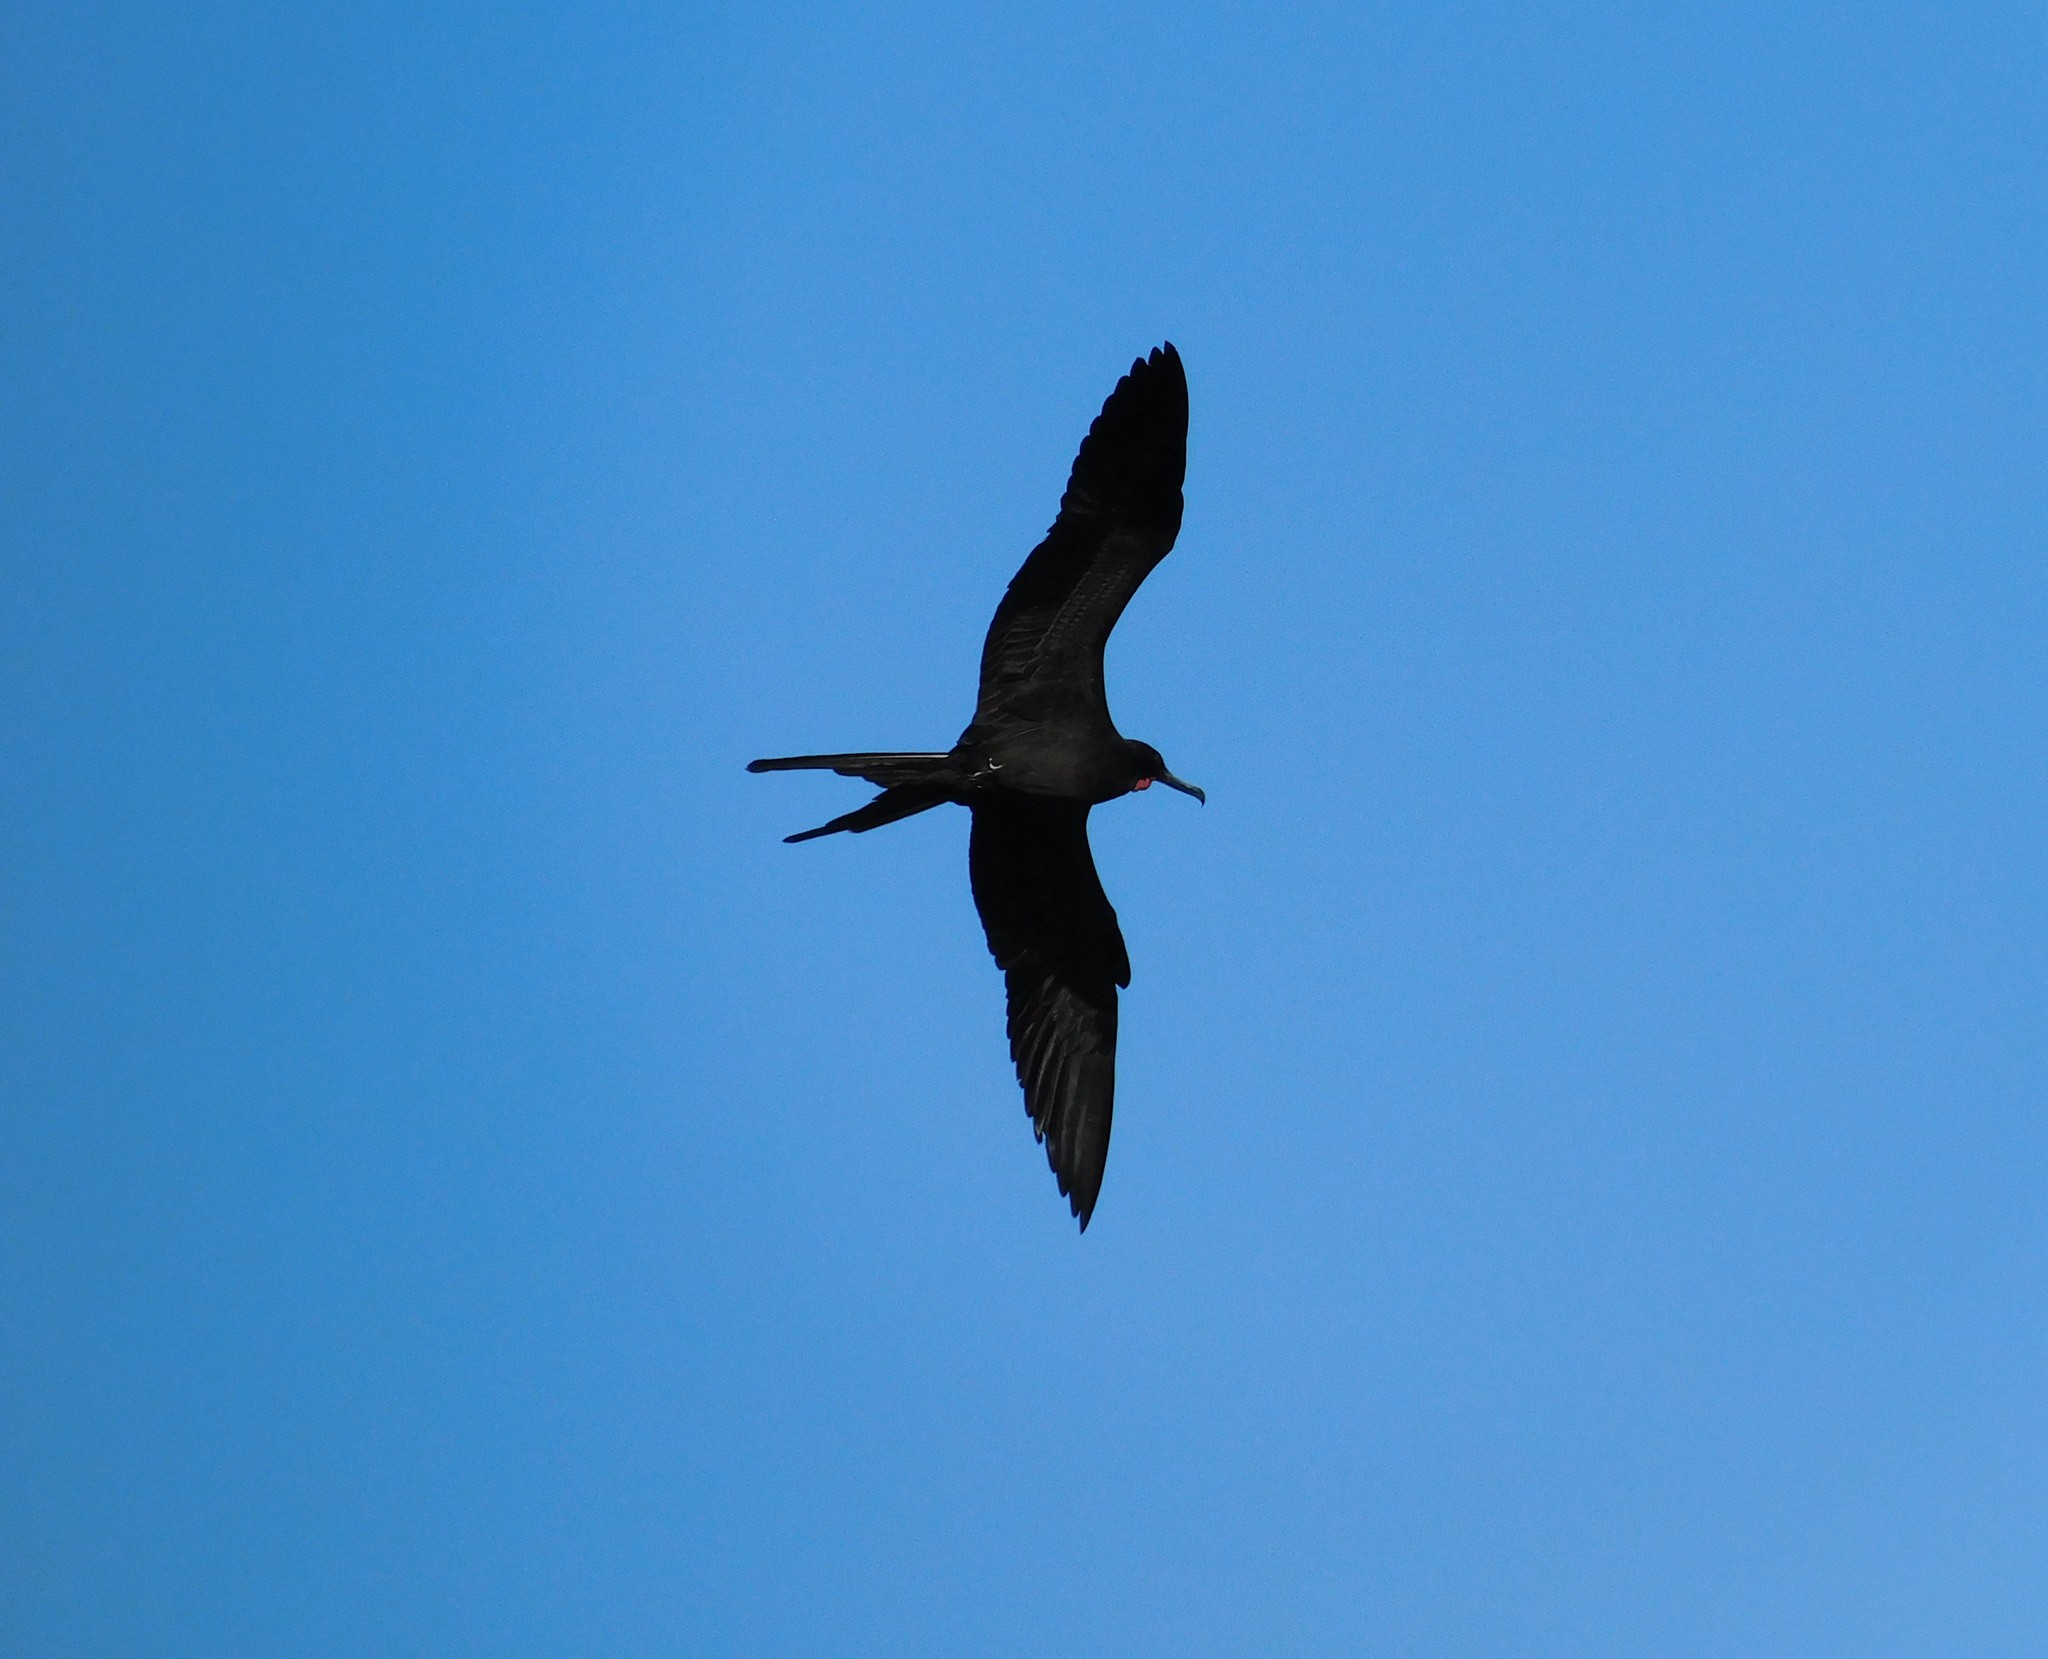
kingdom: Animalia
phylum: Chordata
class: Aves
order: Suliformes
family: Fregatidae
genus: Fregata
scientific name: Fregata magnificens
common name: Magnificent frigatebird
